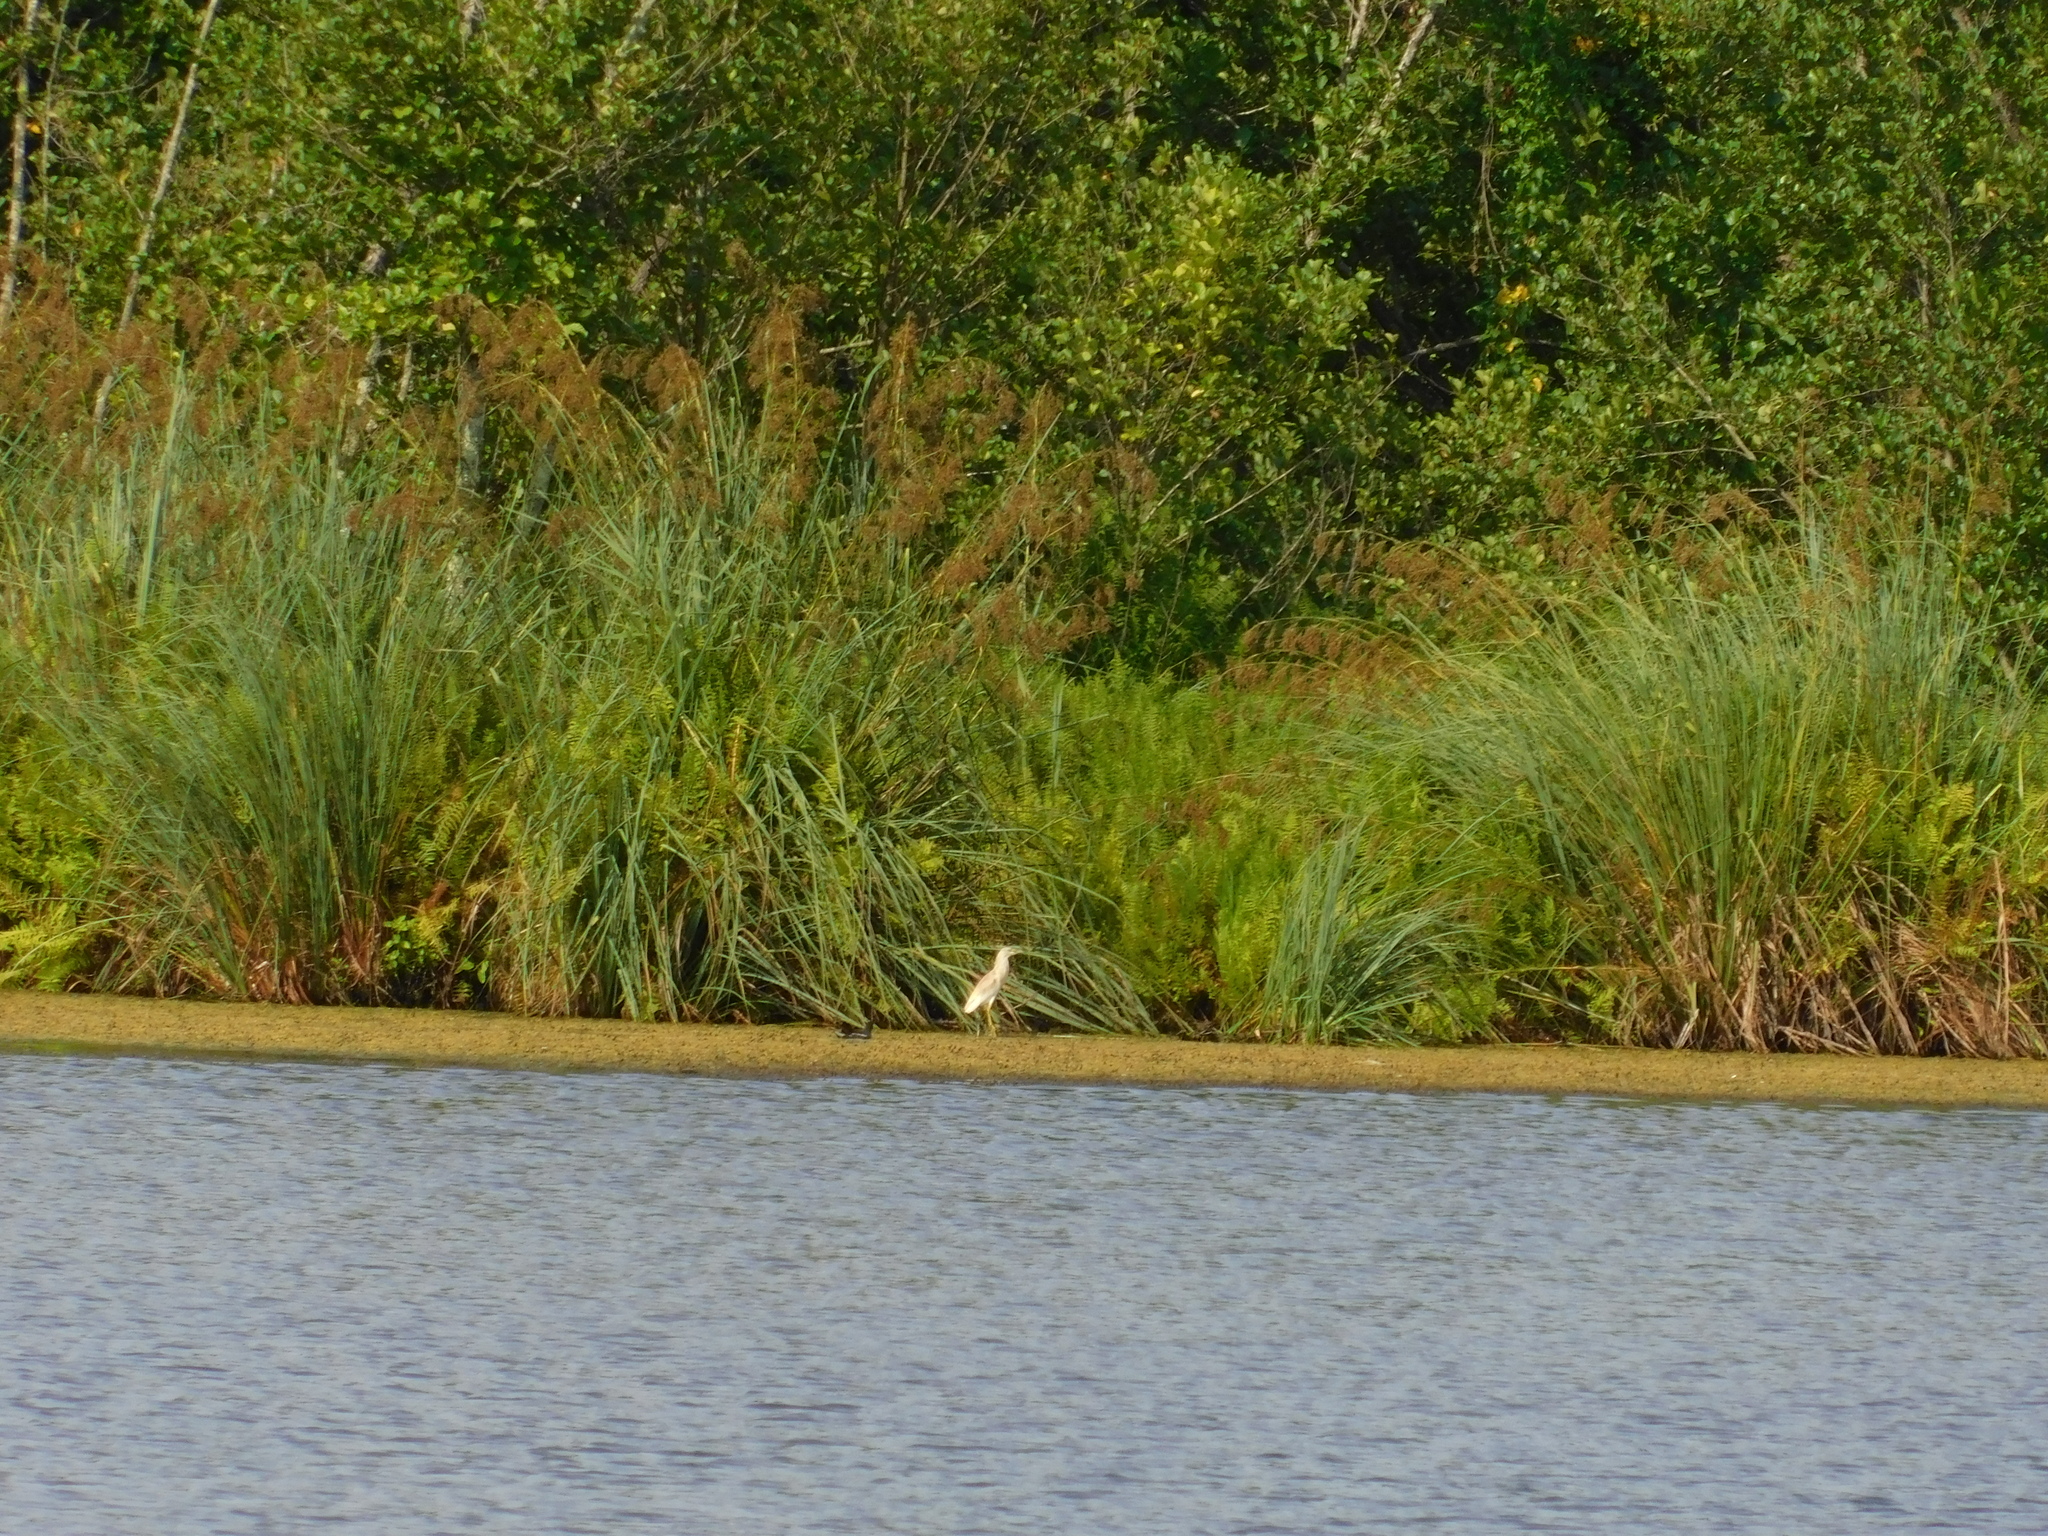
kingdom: Animalia
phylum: Chordata
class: Aves
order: Pelecaniformes
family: Ardeidae
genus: Ardeola
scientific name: Ardeola ralloides
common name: Squacco heron
